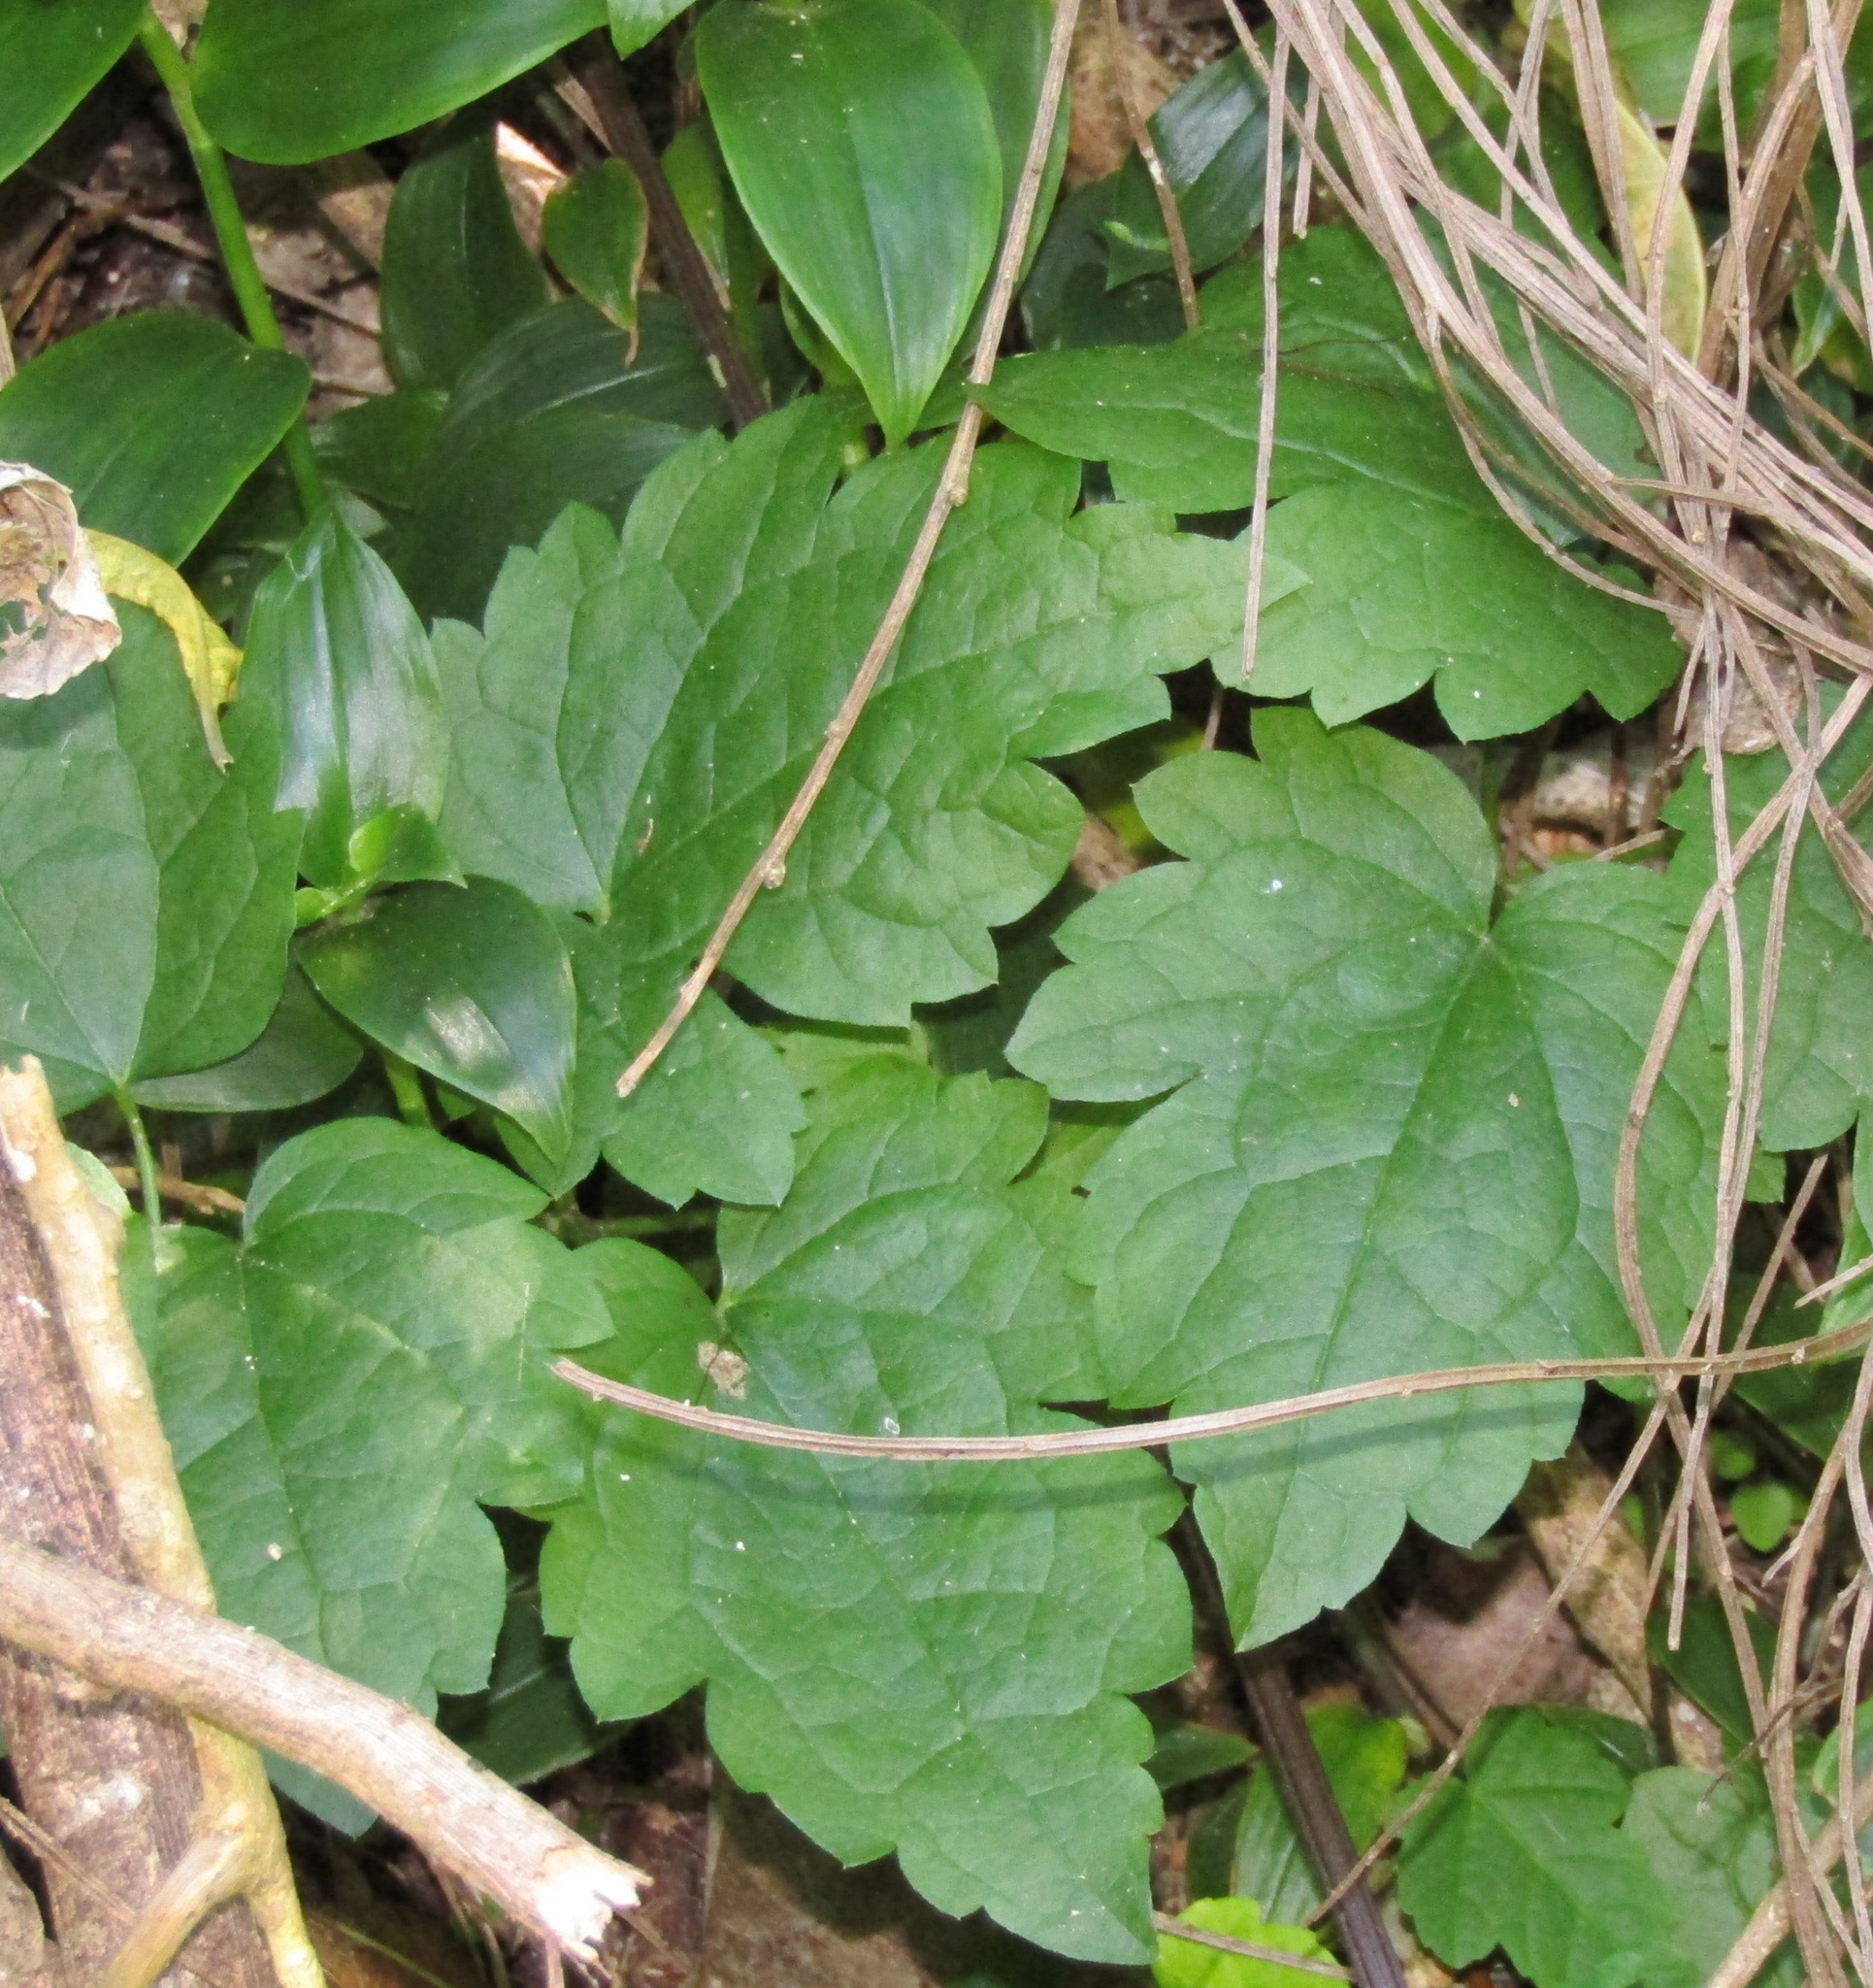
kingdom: Plantae
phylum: Tracheophyta
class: Magnoliopsida
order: Ranunculales
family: Ranunculaceae
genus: Clematis
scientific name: Clematis vitalba
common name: Evergreen clematis
